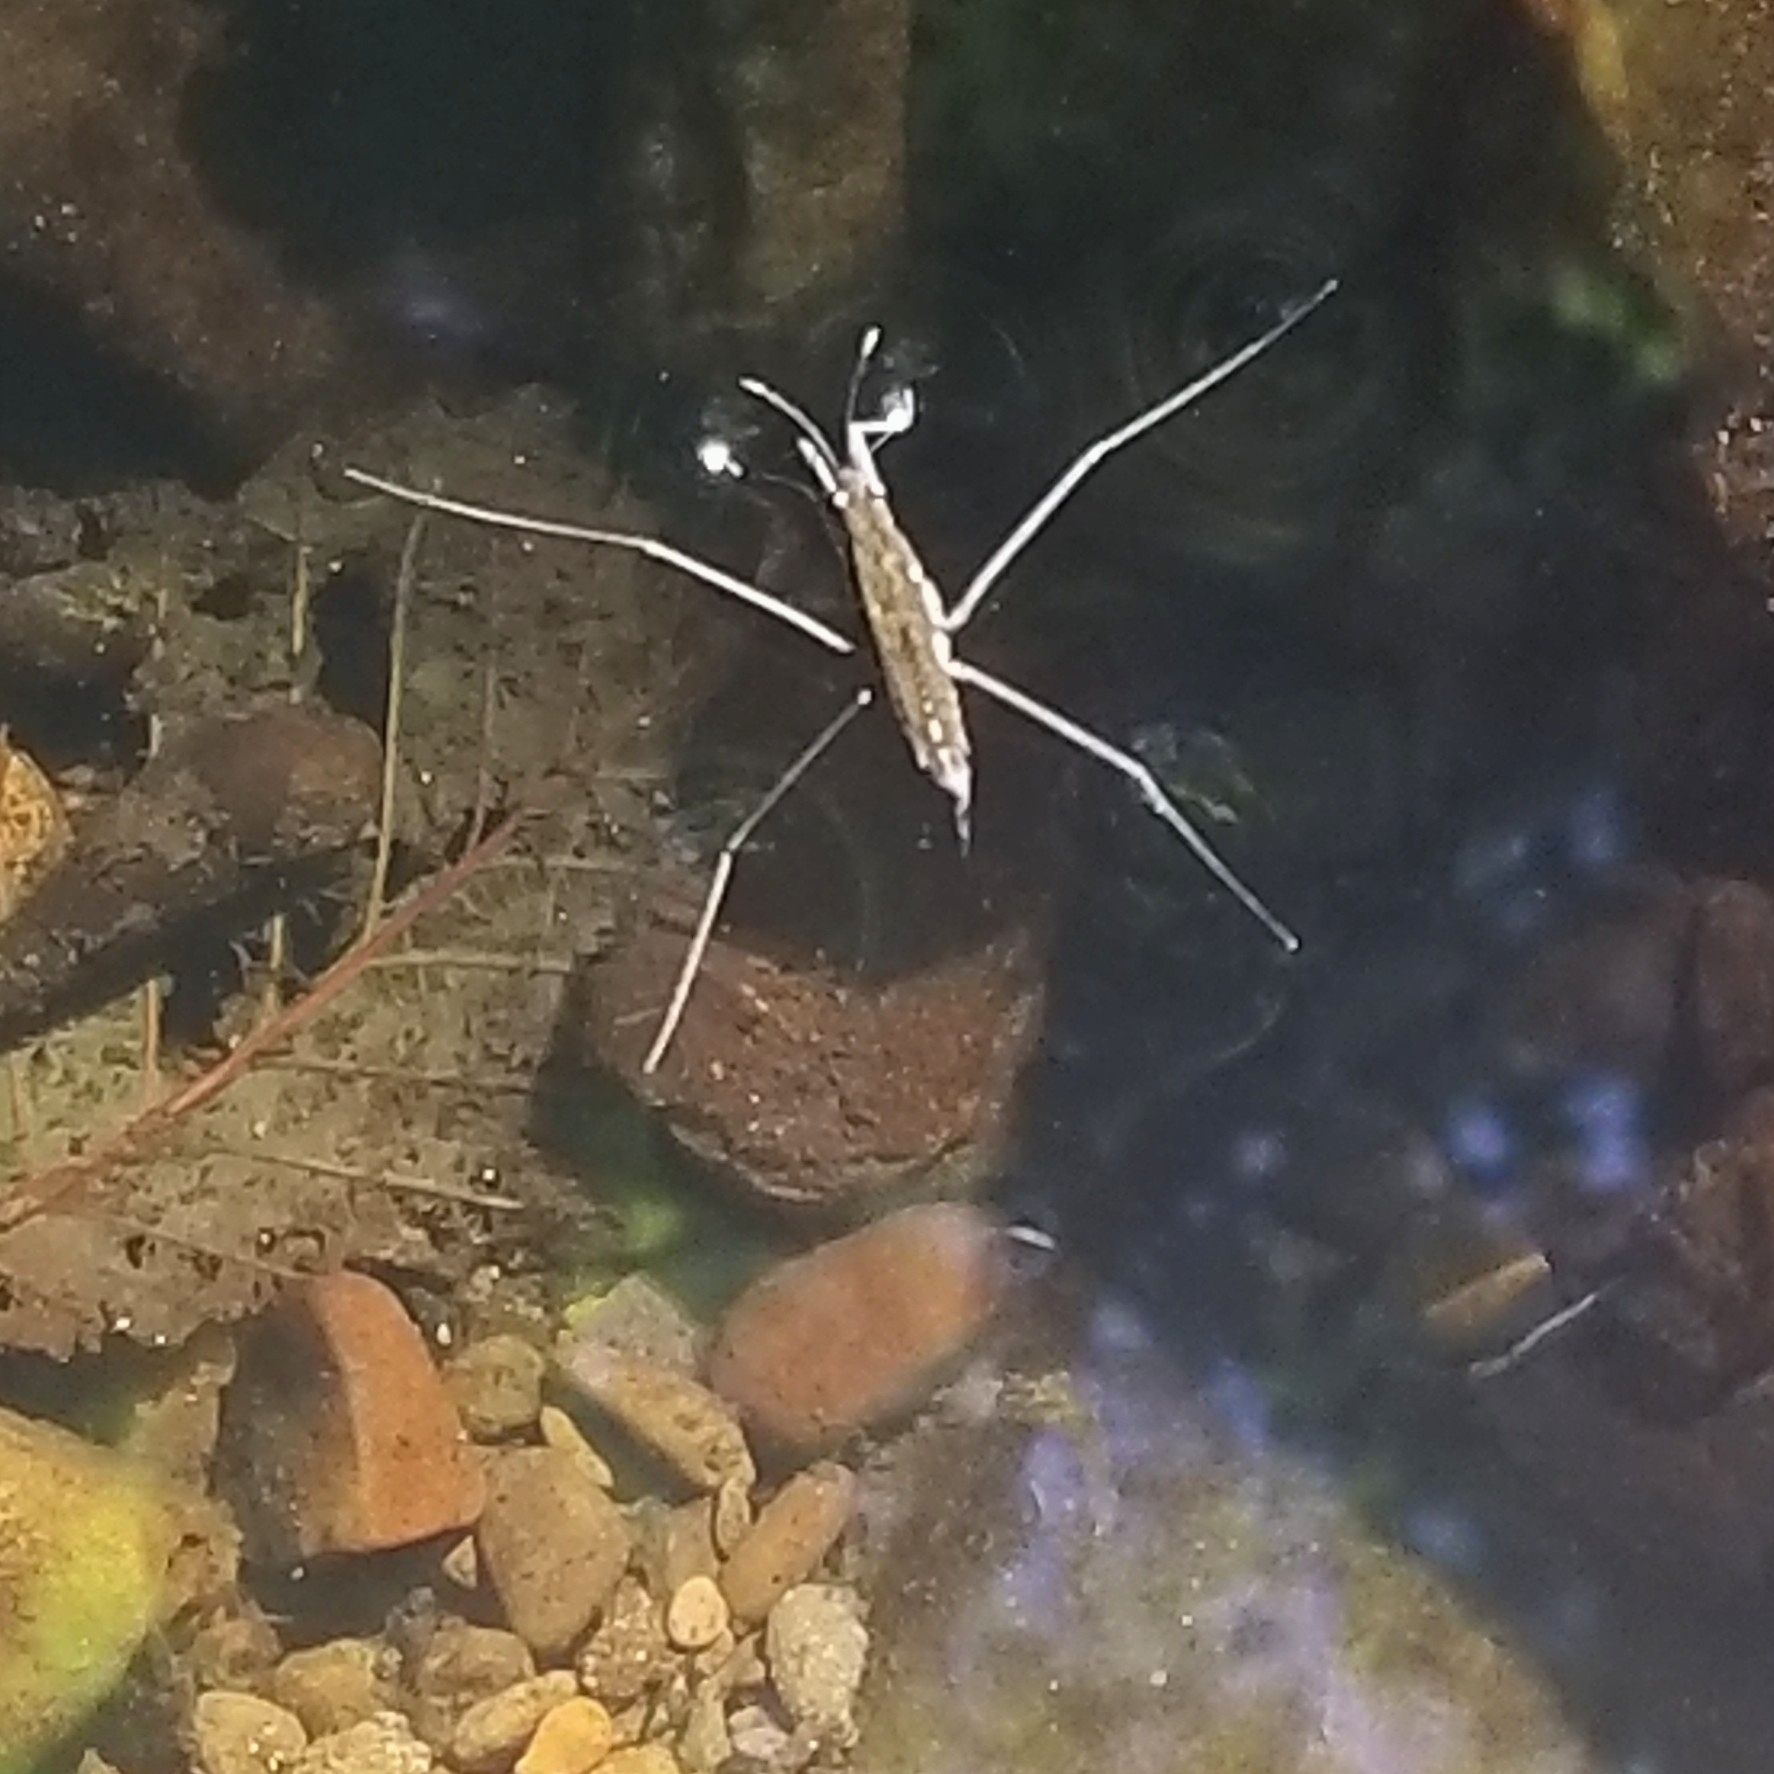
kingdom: Animalia
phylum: Arthropoda
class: Insecta
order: Hemiptera
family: Gerridae
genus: Aquarius
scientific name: Aquarius remigis
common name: Common water strider
